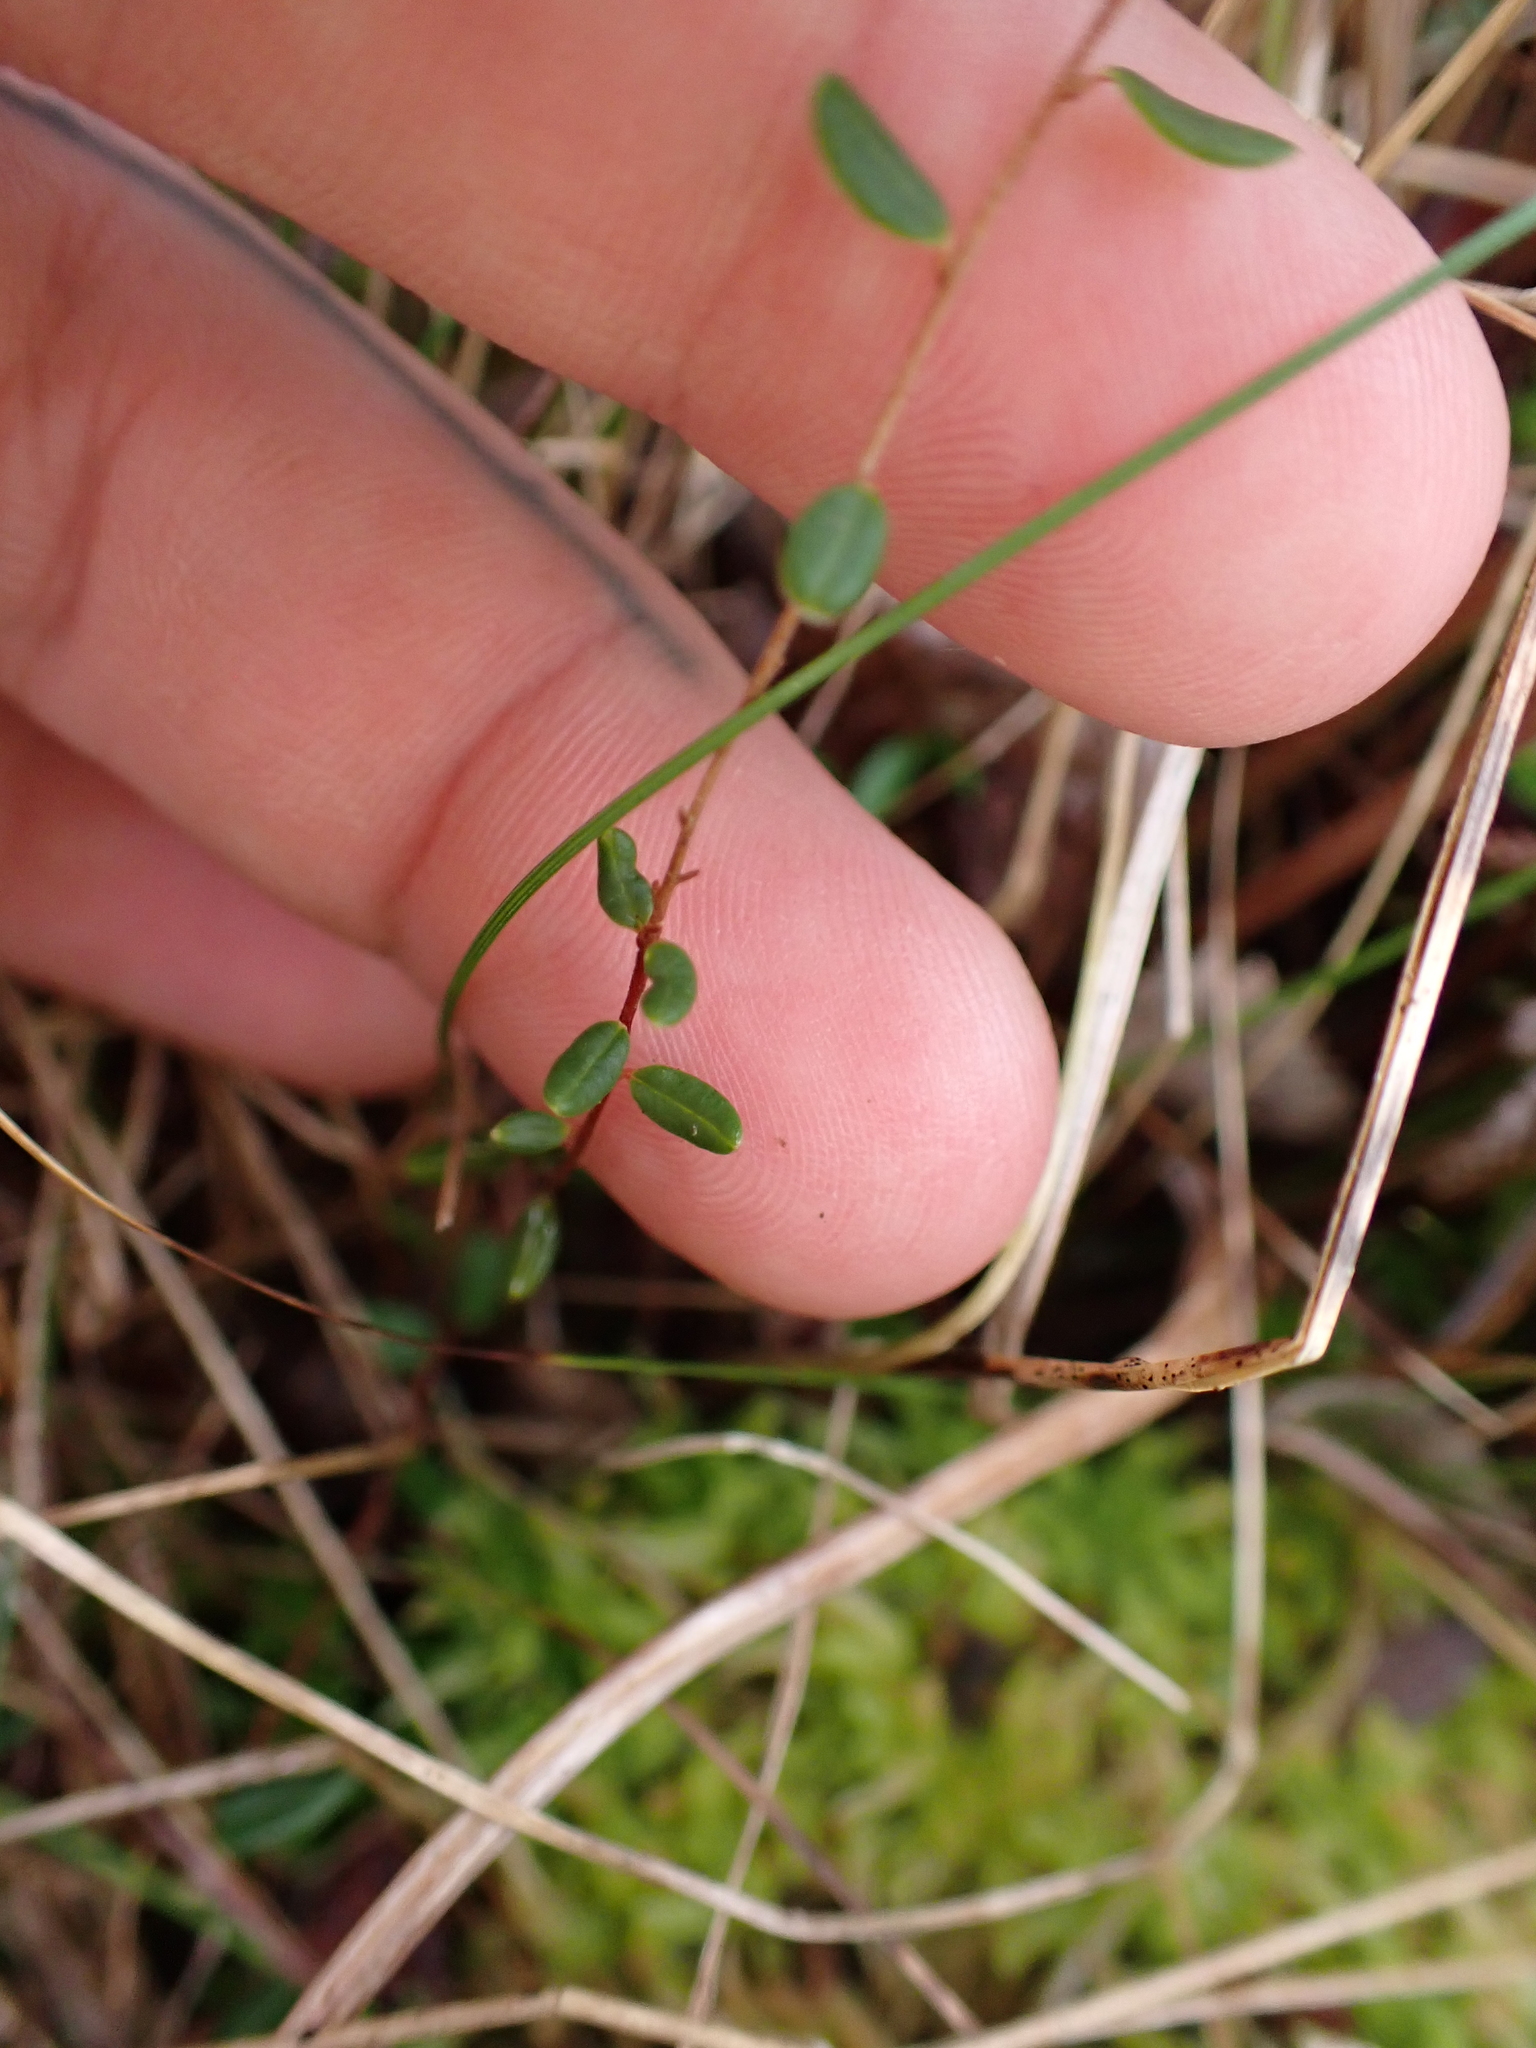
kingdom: Plantae
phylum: Tracheophyta
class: Magnoliopsida
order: Ericales
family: Ericaceae
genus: Vaccinium
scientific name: Vaccinium oxycoccos
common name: Cranberry
